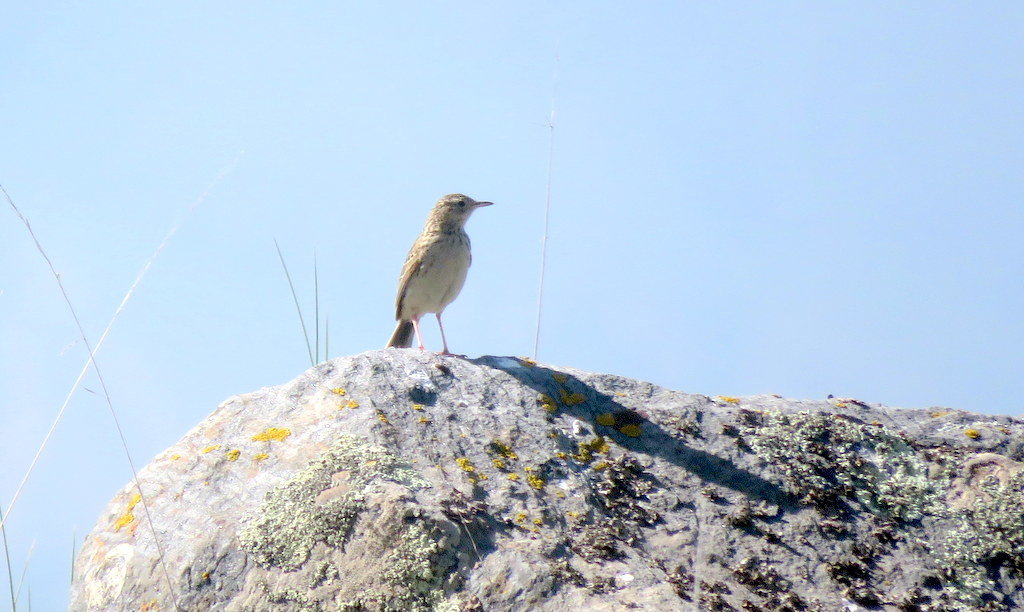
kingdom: Animalia
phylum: Chordata
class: Aves
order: Passeriformes
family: Motacillidae
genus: Anthus
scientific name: Anthus hellmayri
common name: Hellmayr's pipit
